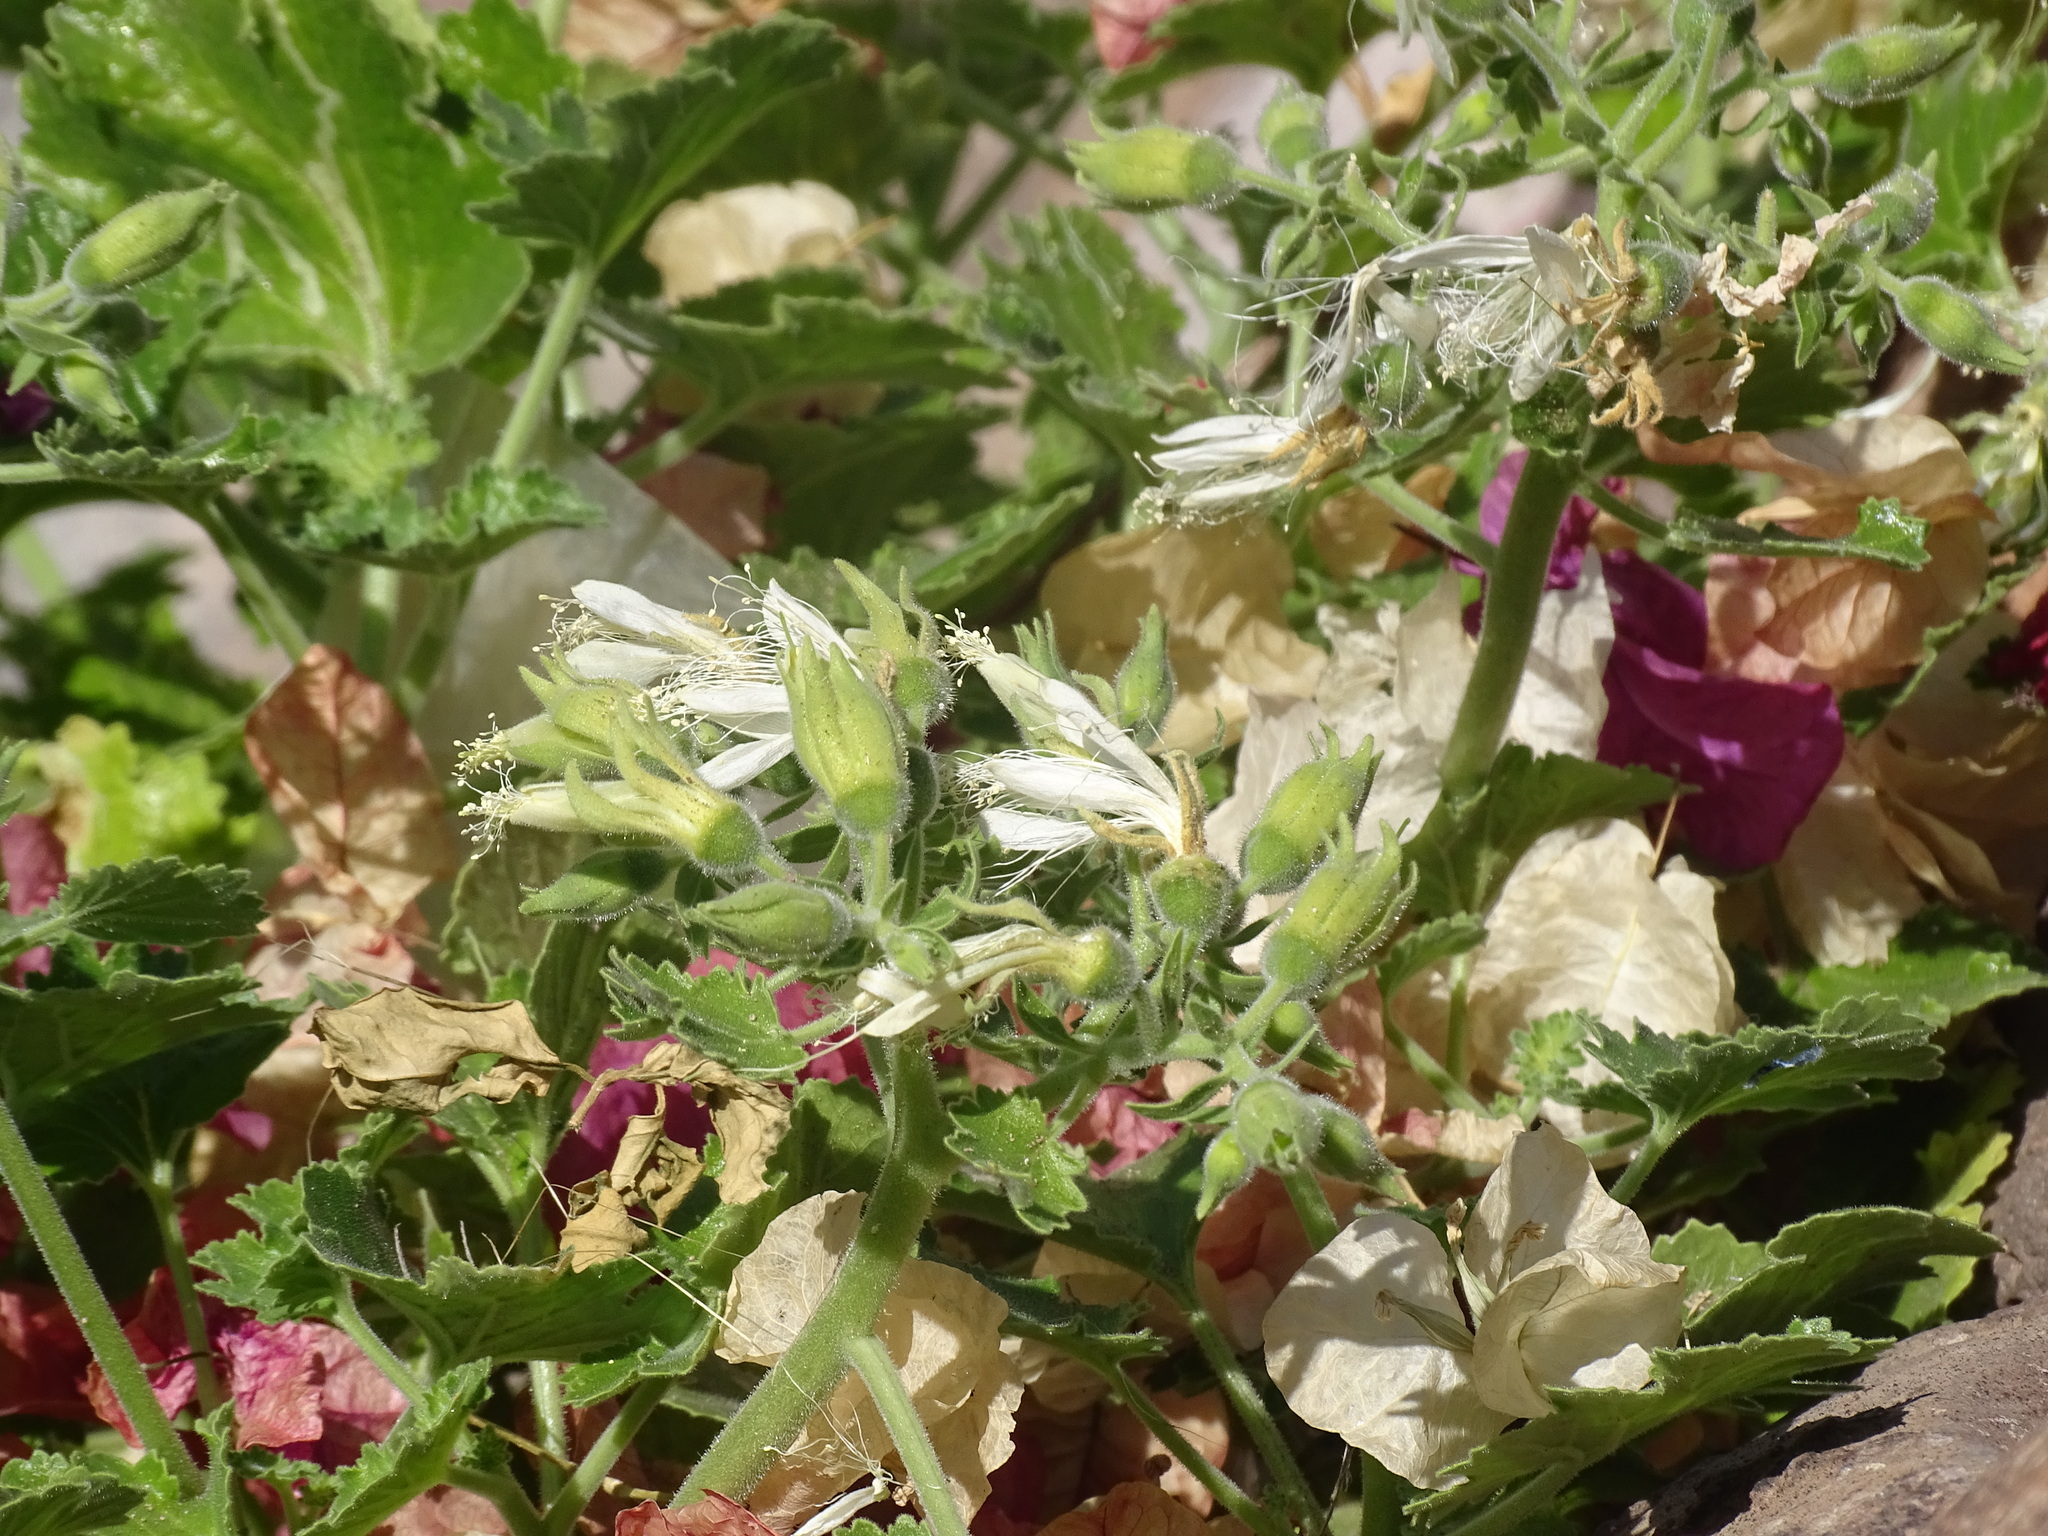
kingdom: Plantae
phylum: Tracheophyta
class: Magnoliopsida
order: Cornales
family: Loasaceae
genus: Eucnide
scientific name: Eucnide cordata
